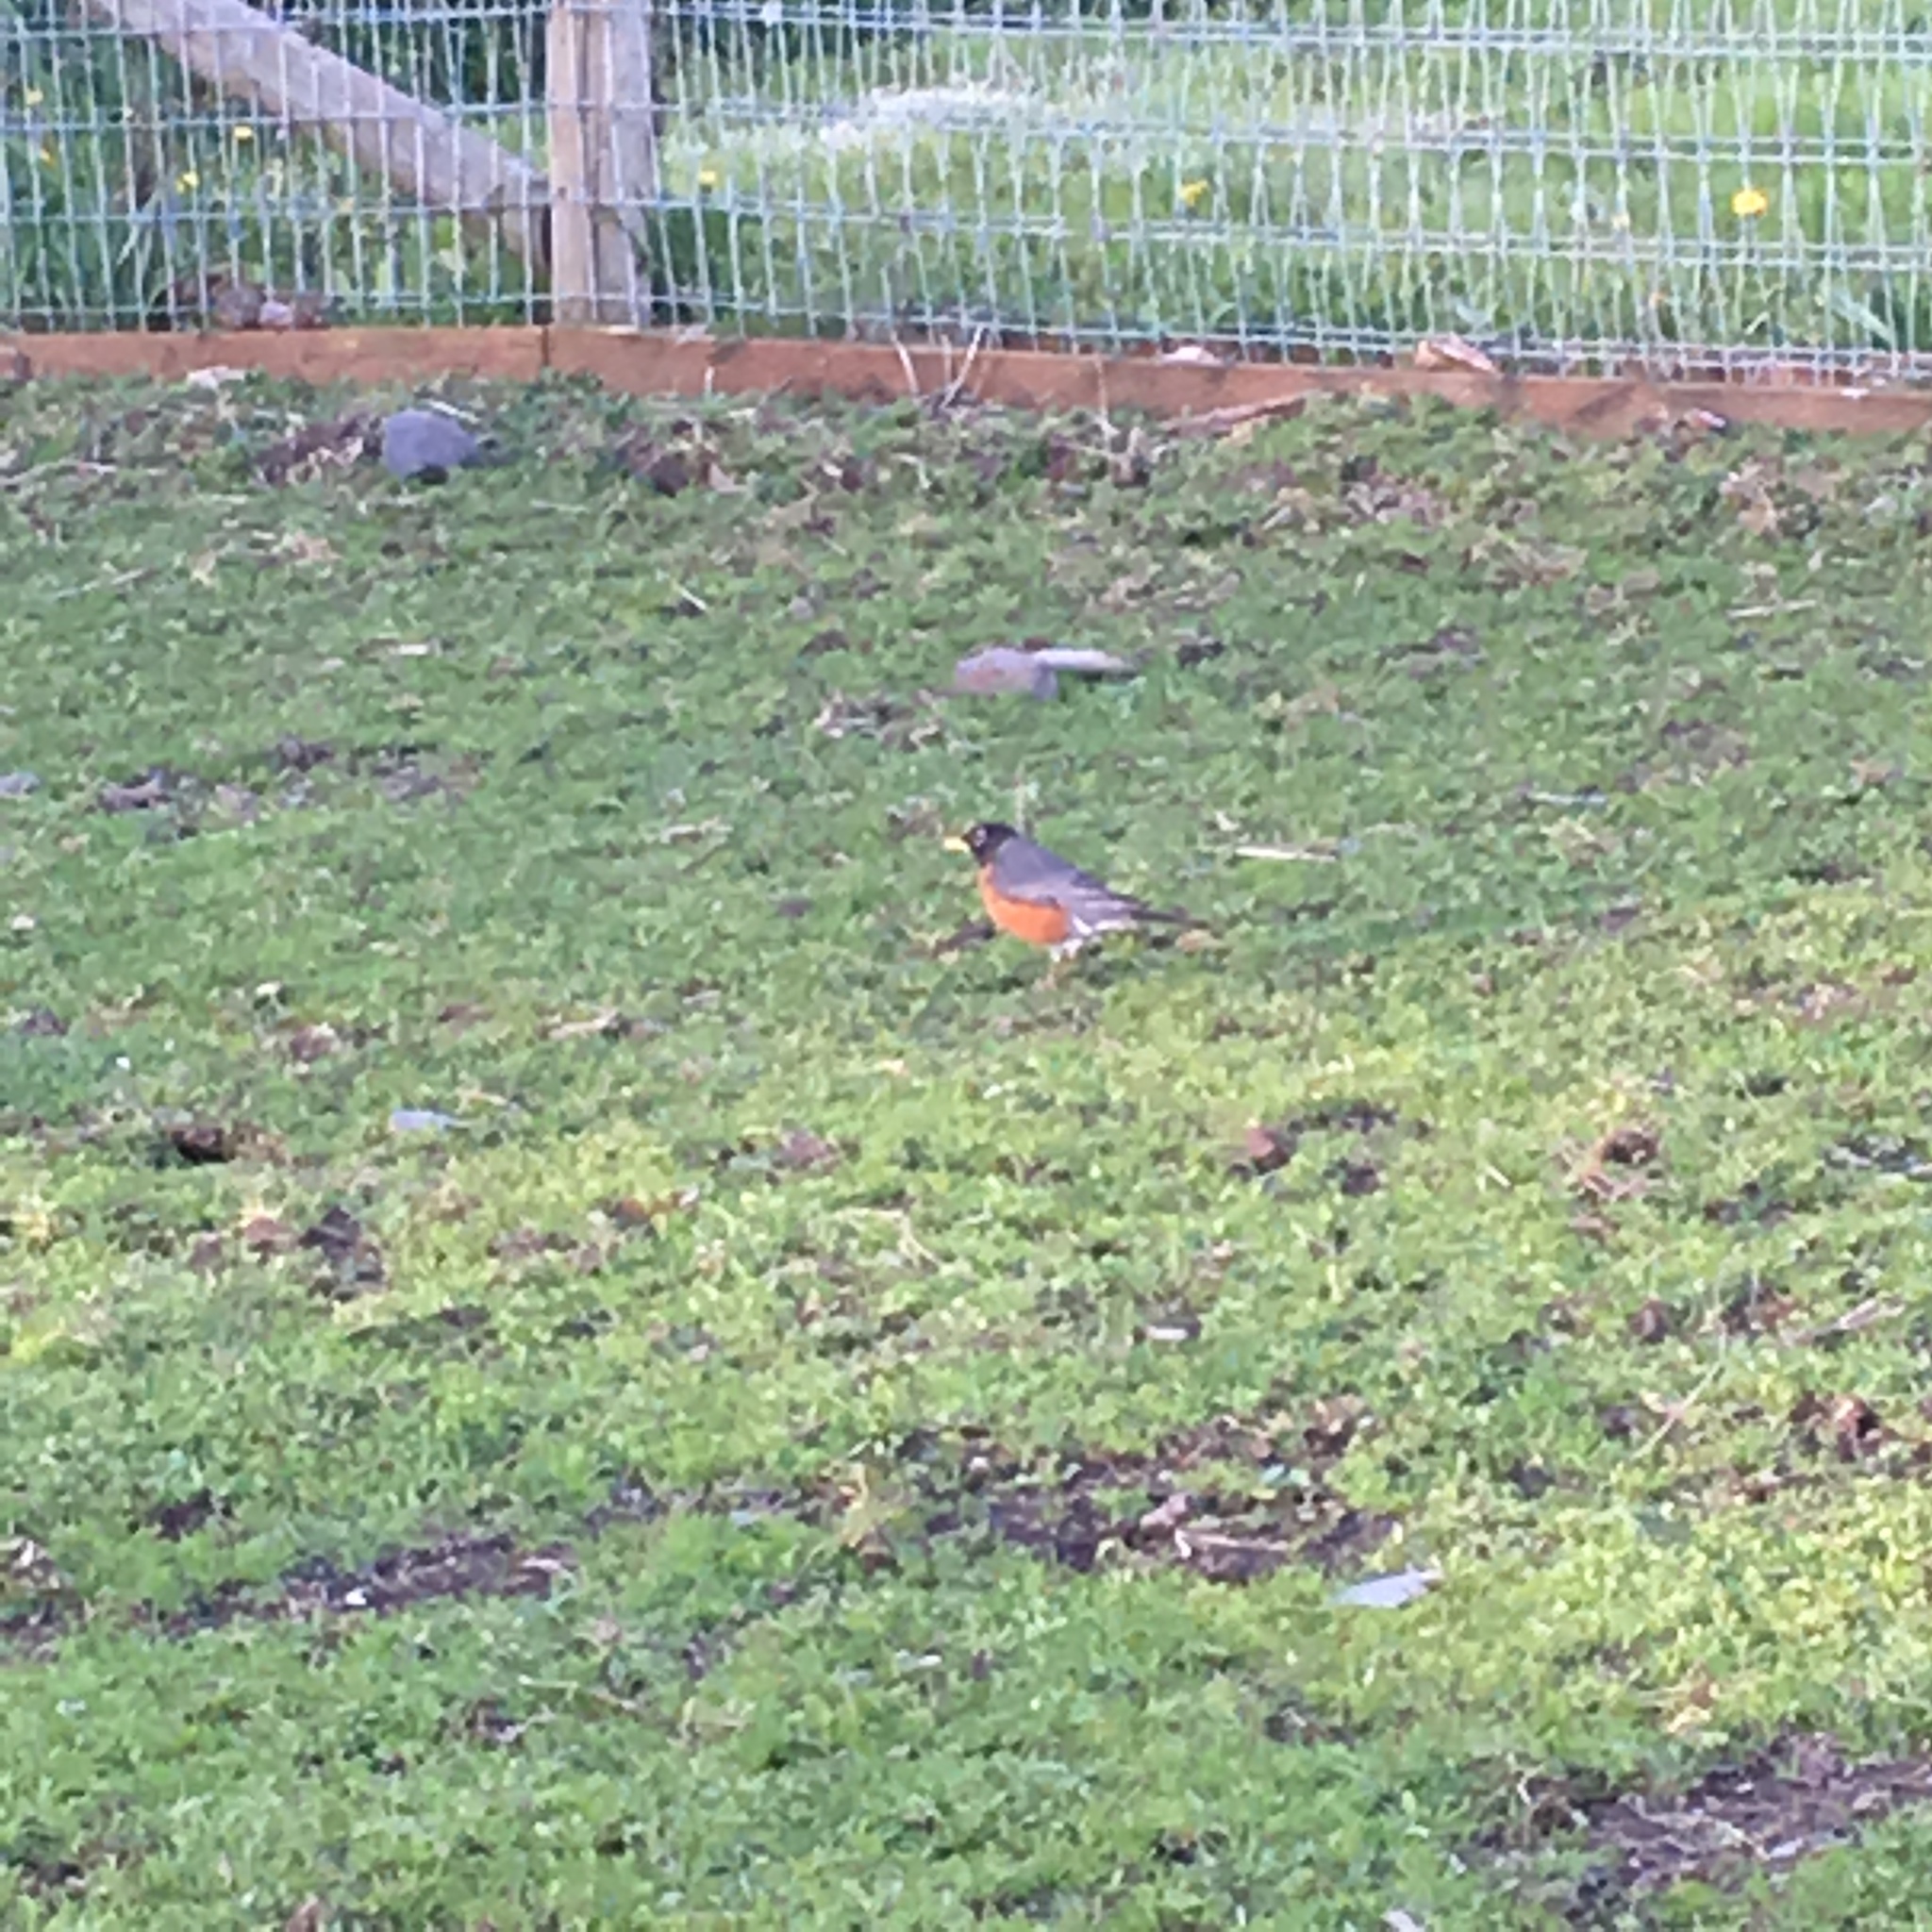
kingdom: Animalia
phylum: Chordata
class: Aves
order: Passeriformes
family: Turdidae
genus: Turdus
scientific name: Turdus migratorius
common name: American robin
